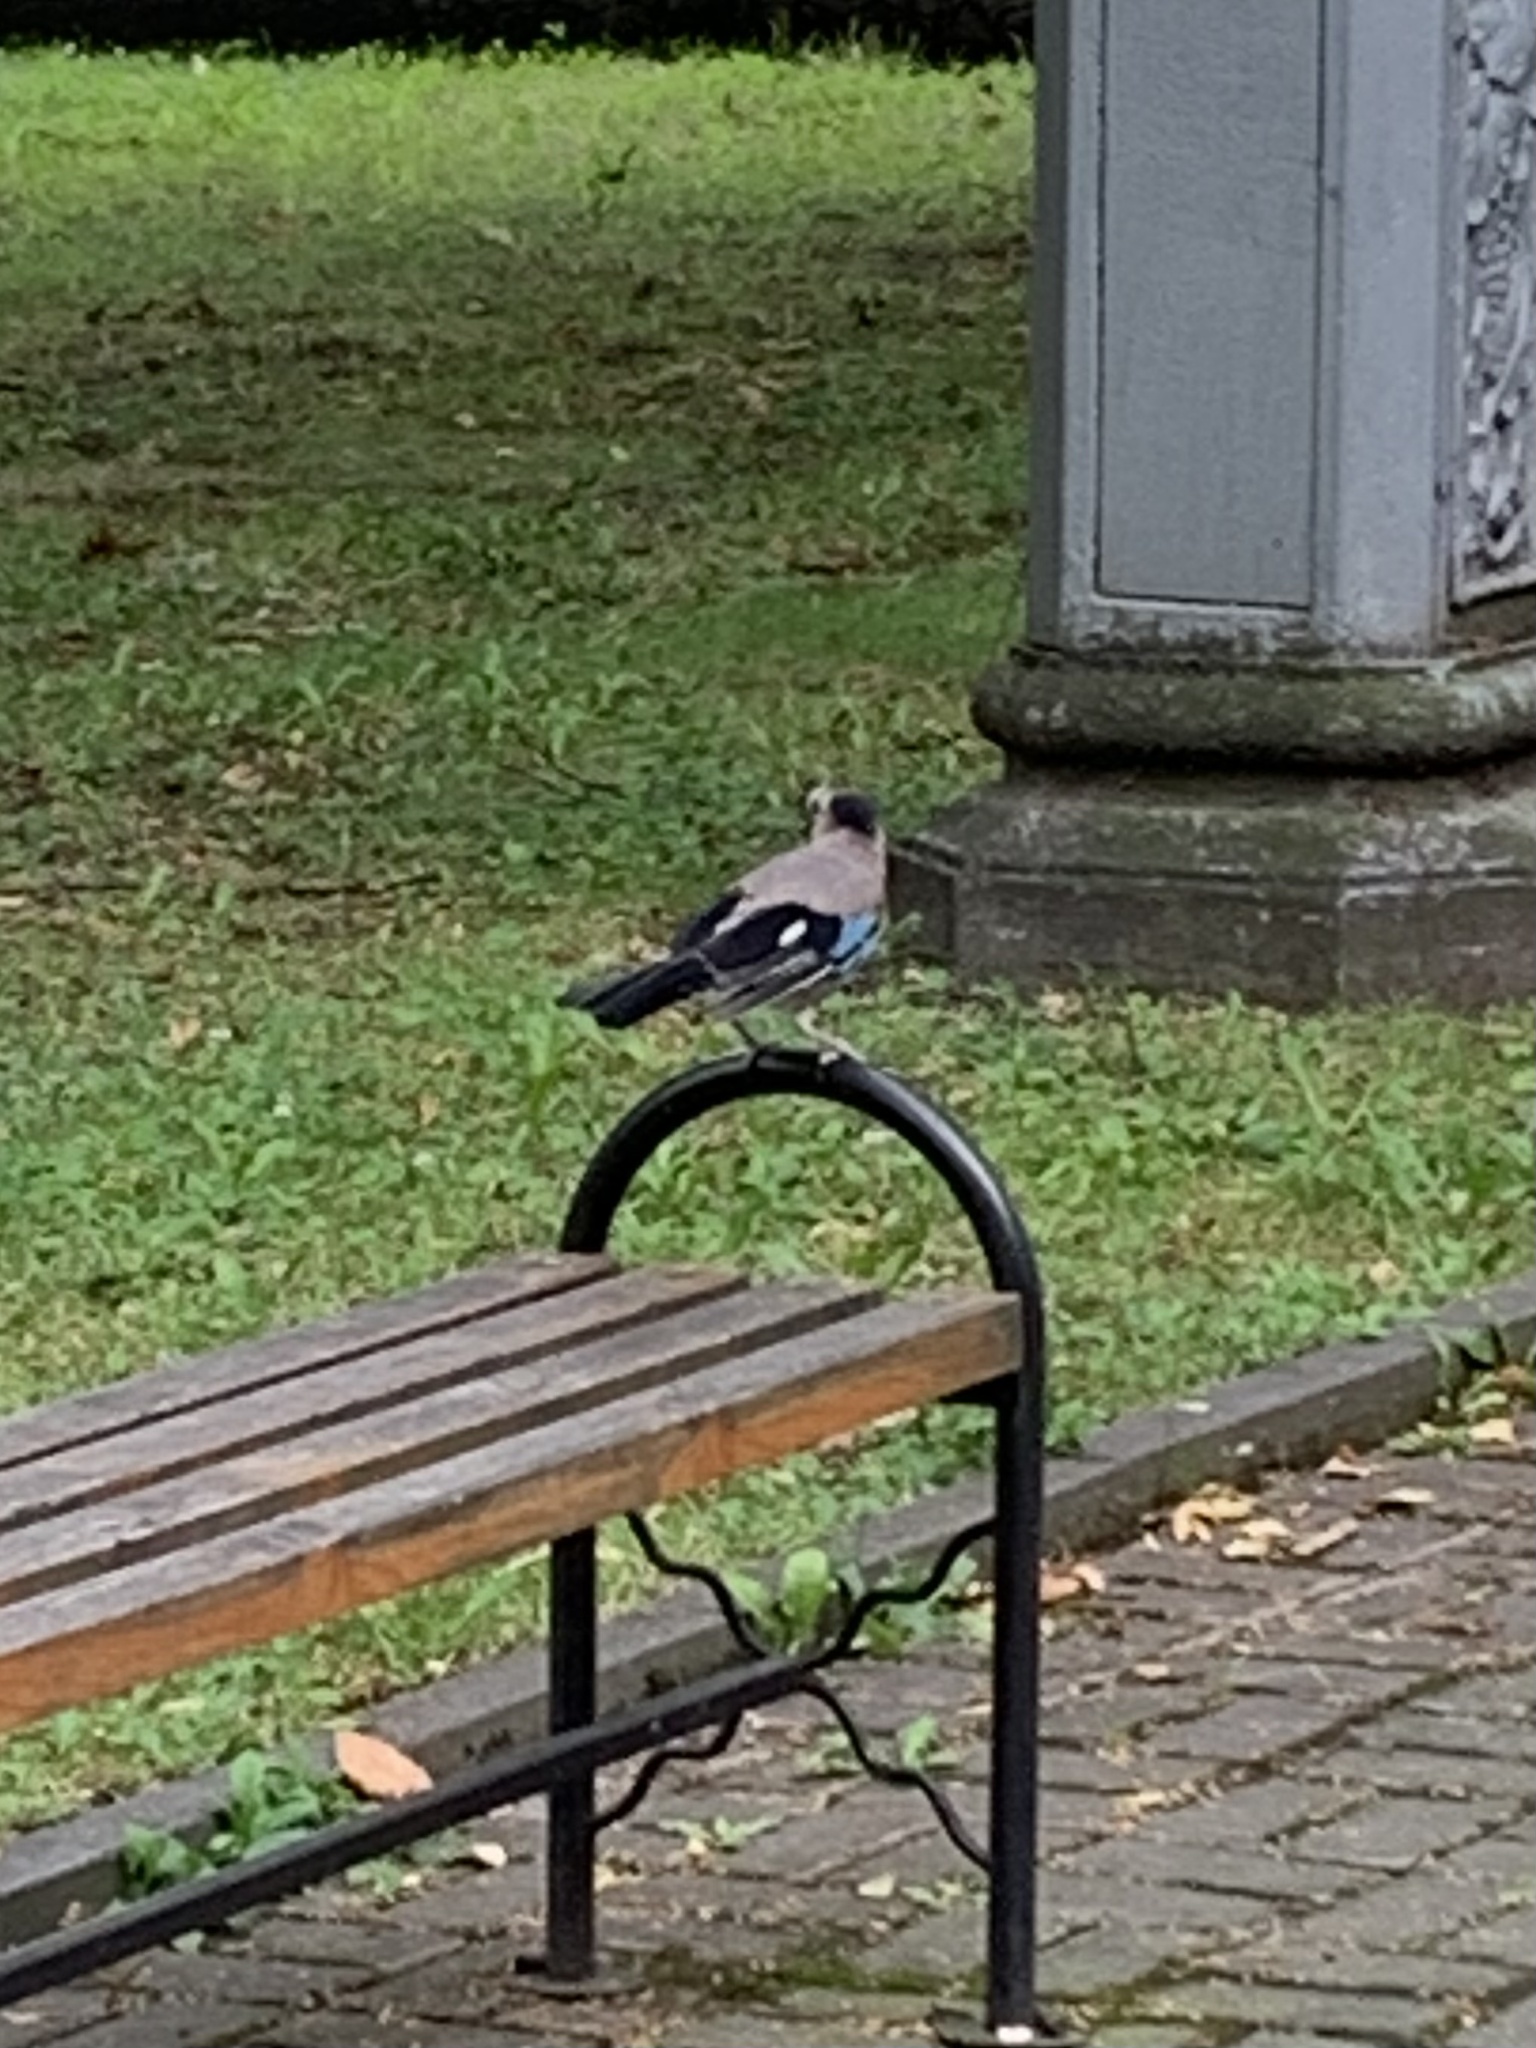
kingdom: Animalia
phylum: Chordata
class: Aves
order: Passeriformes
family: Corvidae
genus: Garrulus
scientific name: Garrulus glandarius
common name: Eurasian jay
